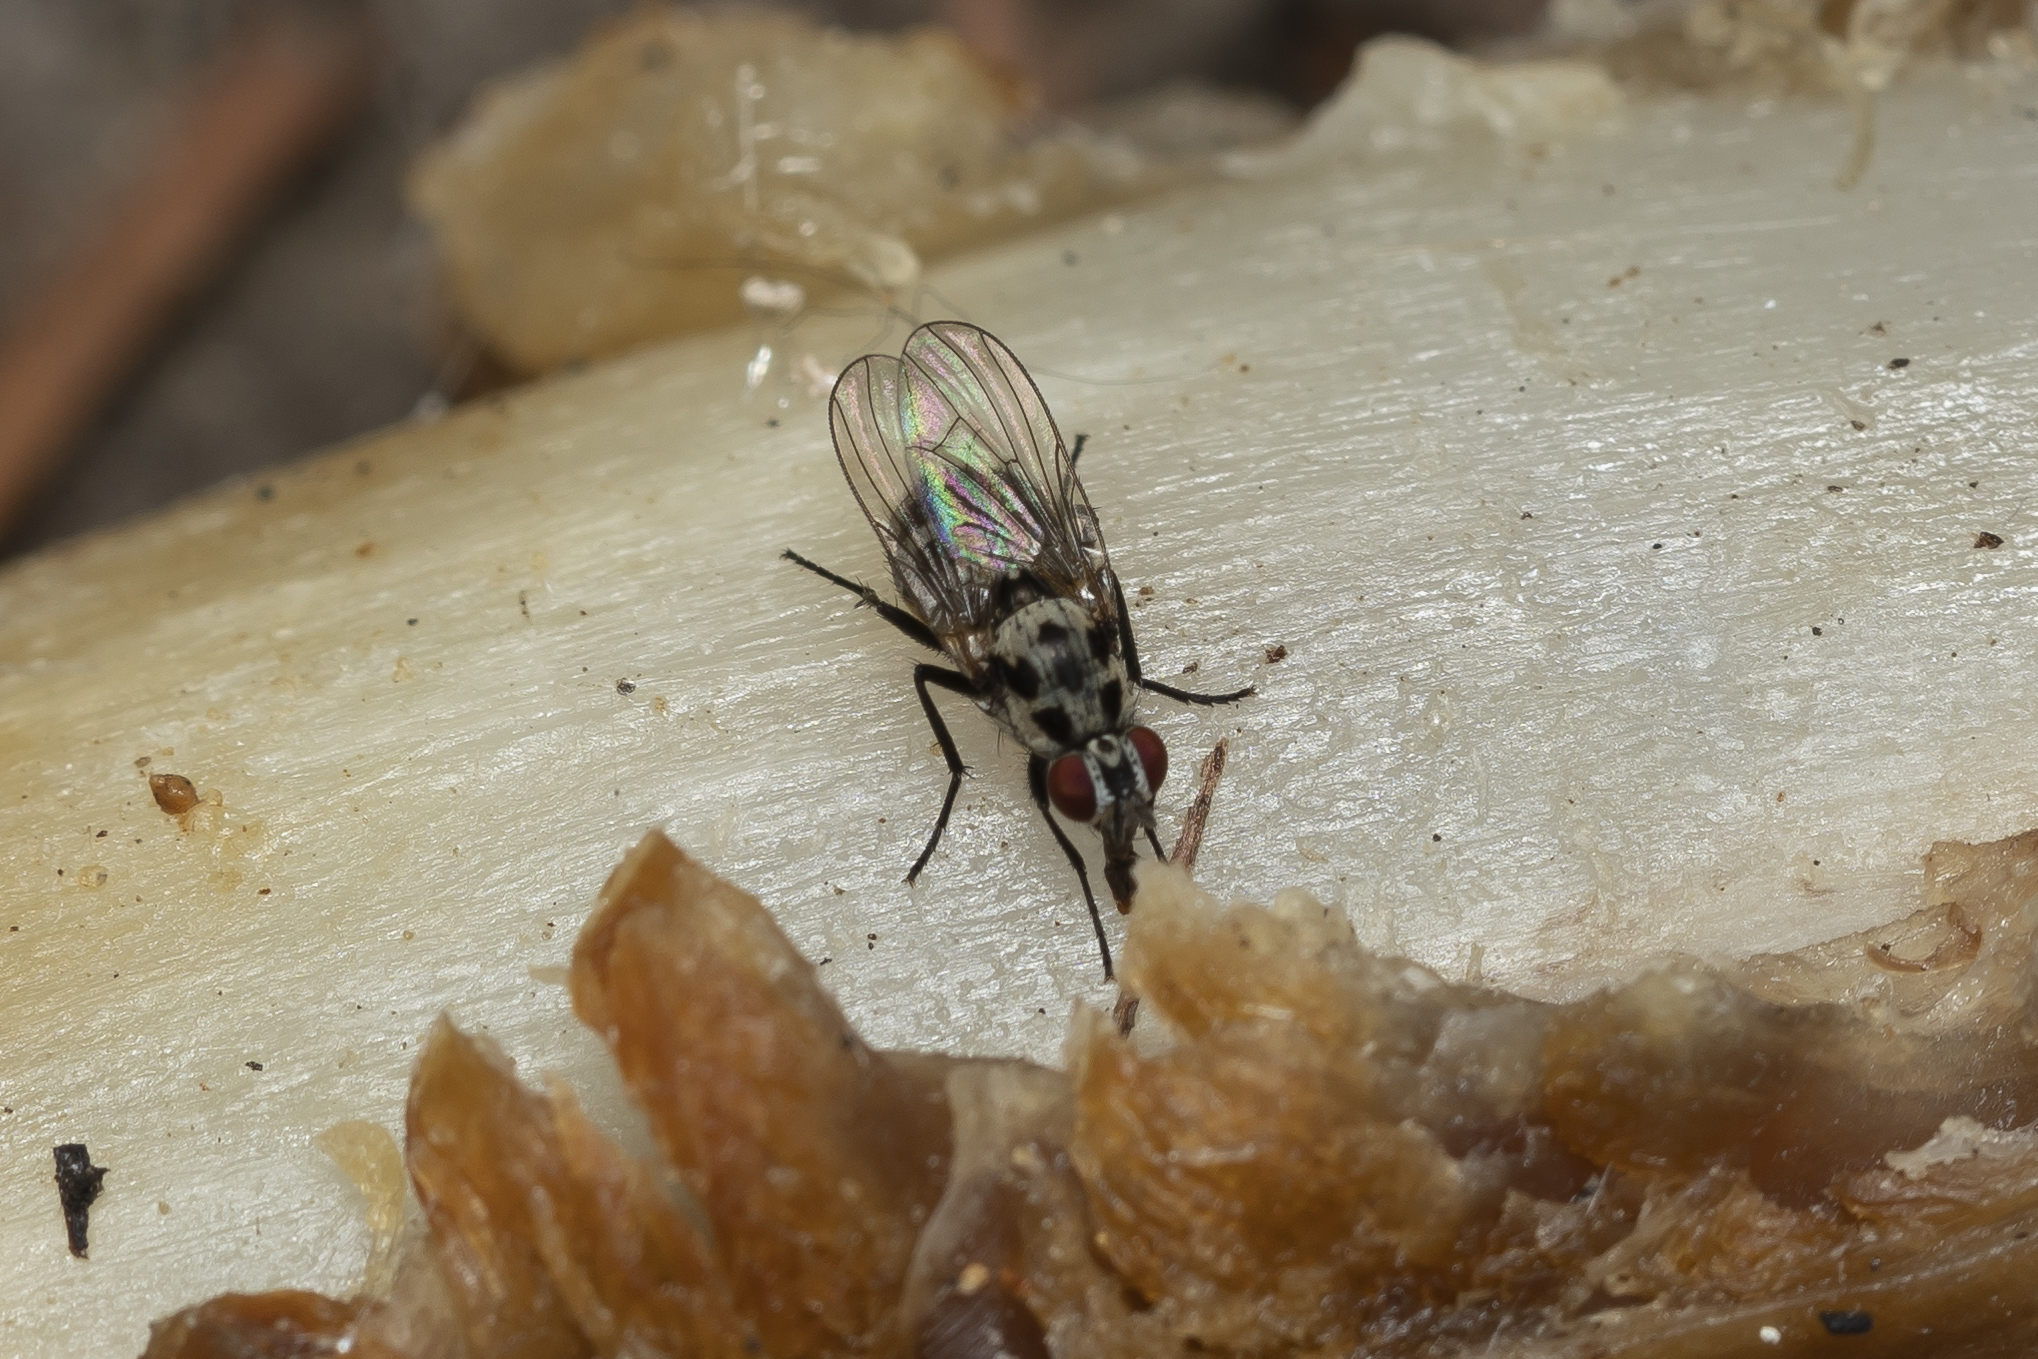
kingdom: Animalia
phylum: Arthropoda
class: Insecta
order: Diptera
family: Anthomyiidae
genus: Anthomyia
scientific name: Anthomyia quinquemaculata
